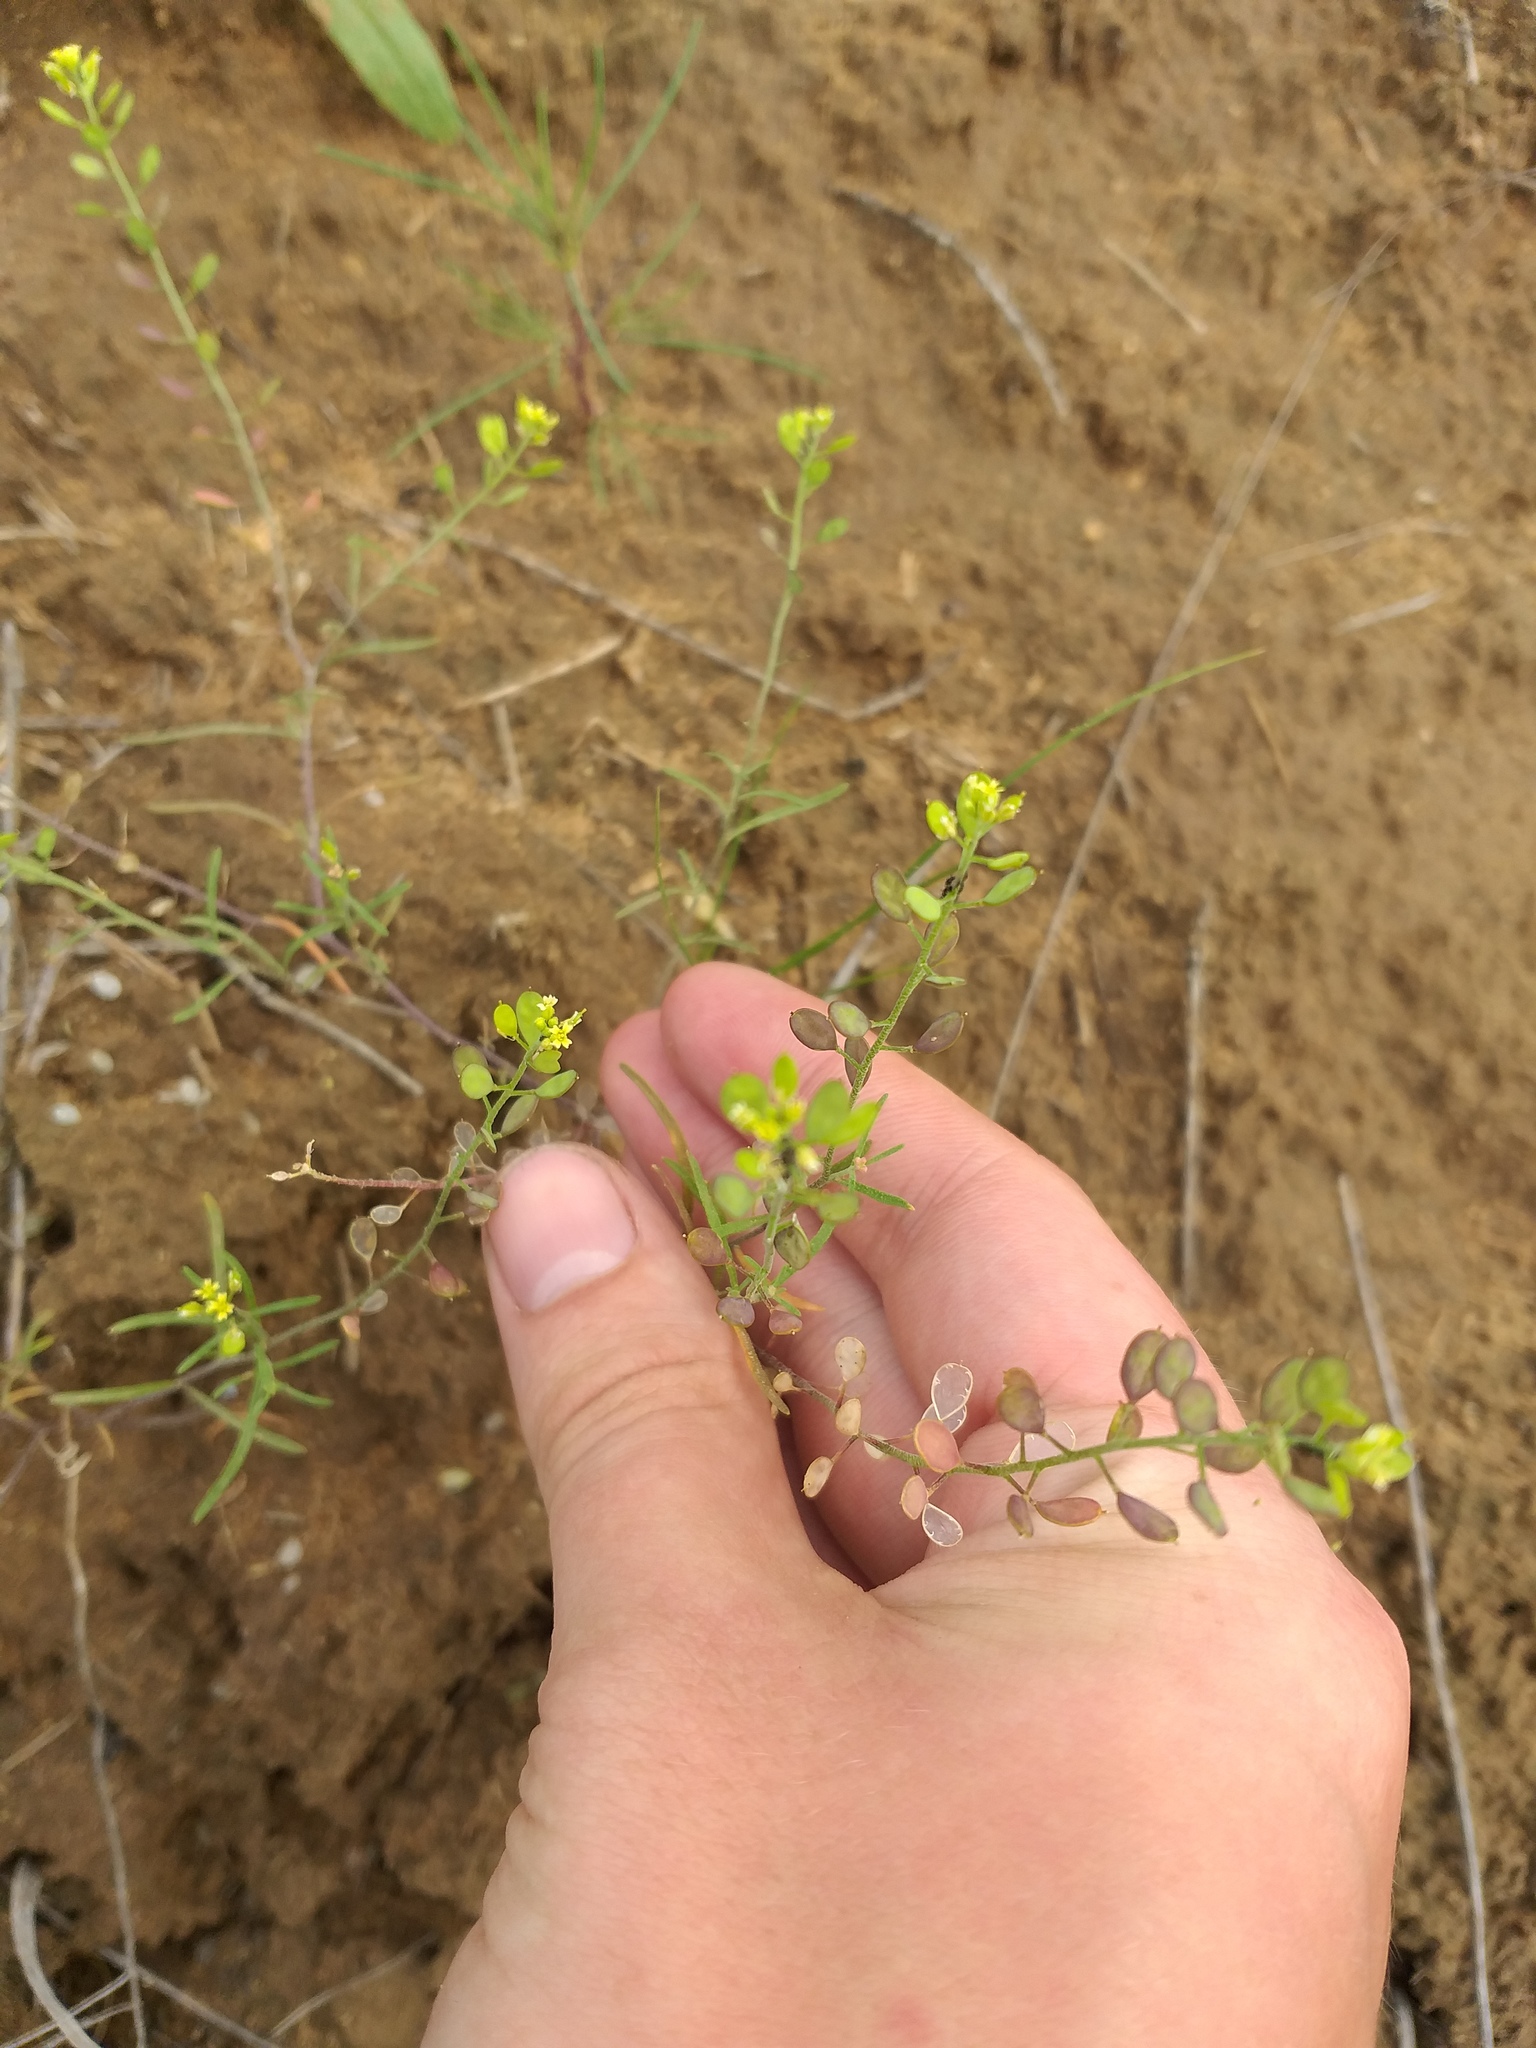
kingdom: Plantae
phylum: Tracheophyta
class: Magnoliopsida
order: Brassicales
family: Brassicaceae
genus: Meniocus
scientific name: Meniocus linifolius
